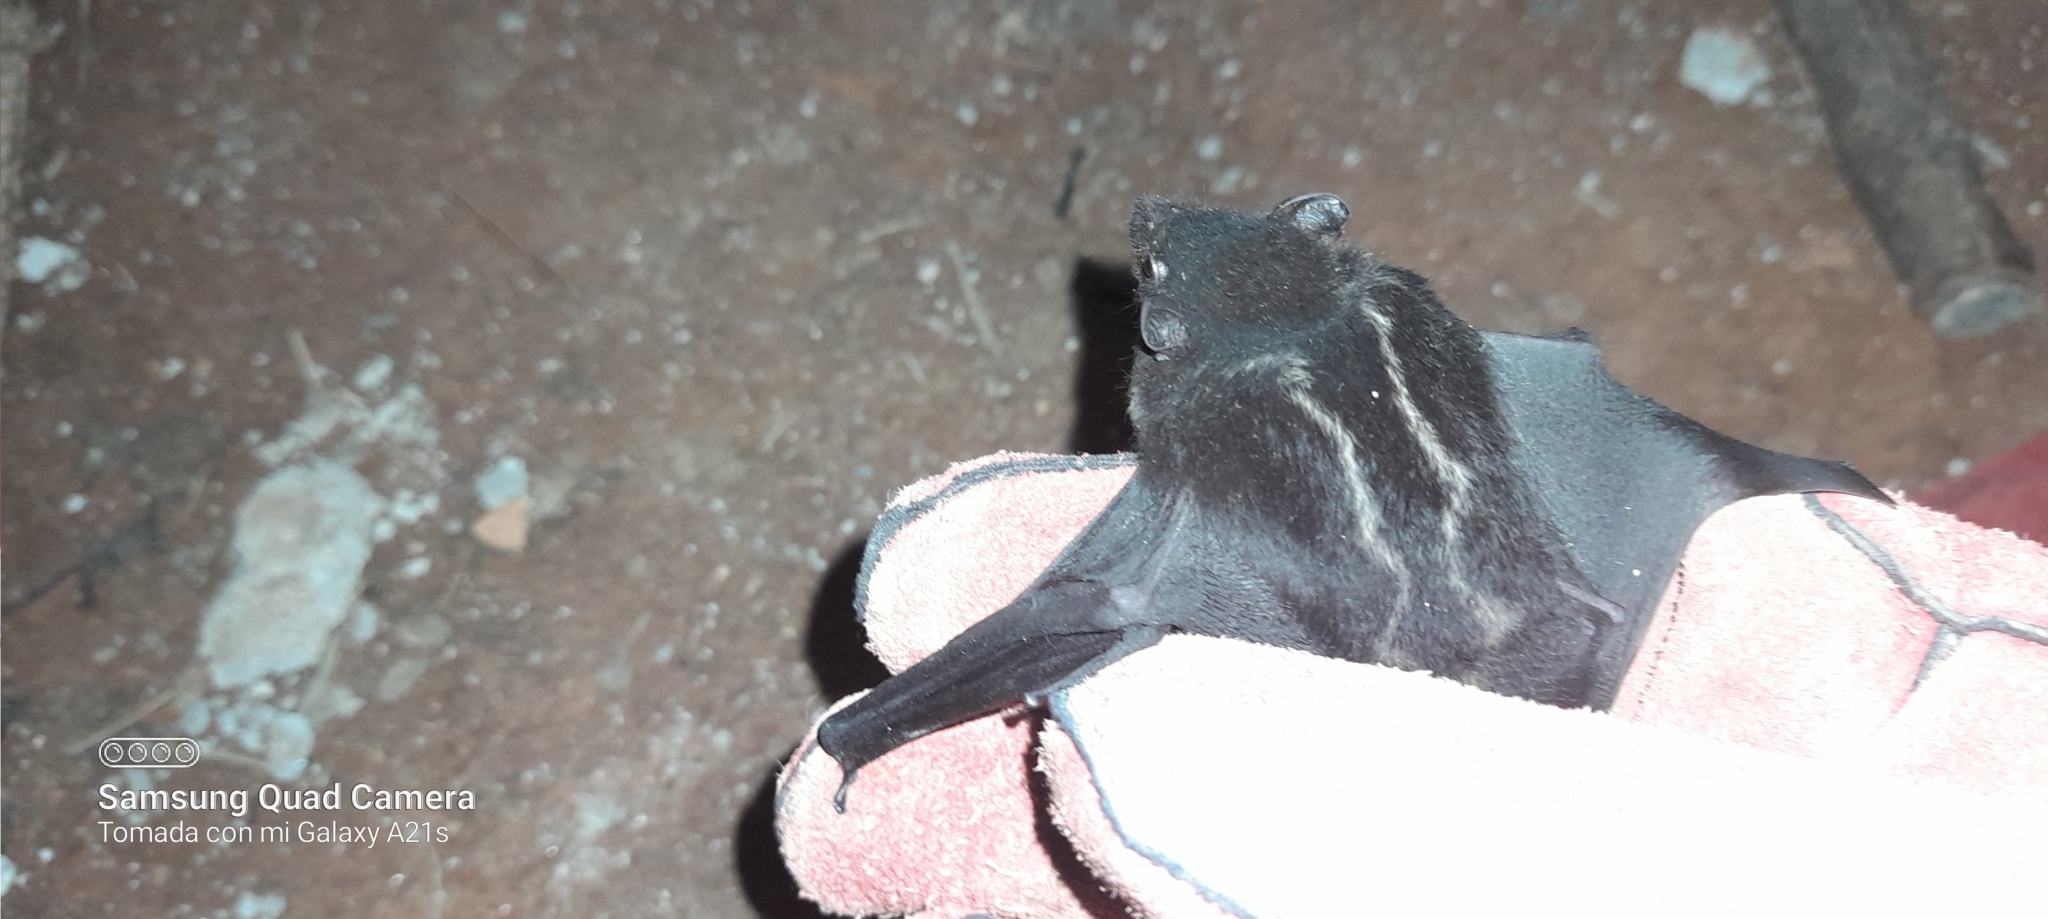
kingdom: Animalia
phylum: Chordata
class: Mammalia
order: Chiroptera
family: Emballonuridae
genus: Saccopteryx
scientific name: Saccopteryx bilineata
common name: Greater sac-winged bat
